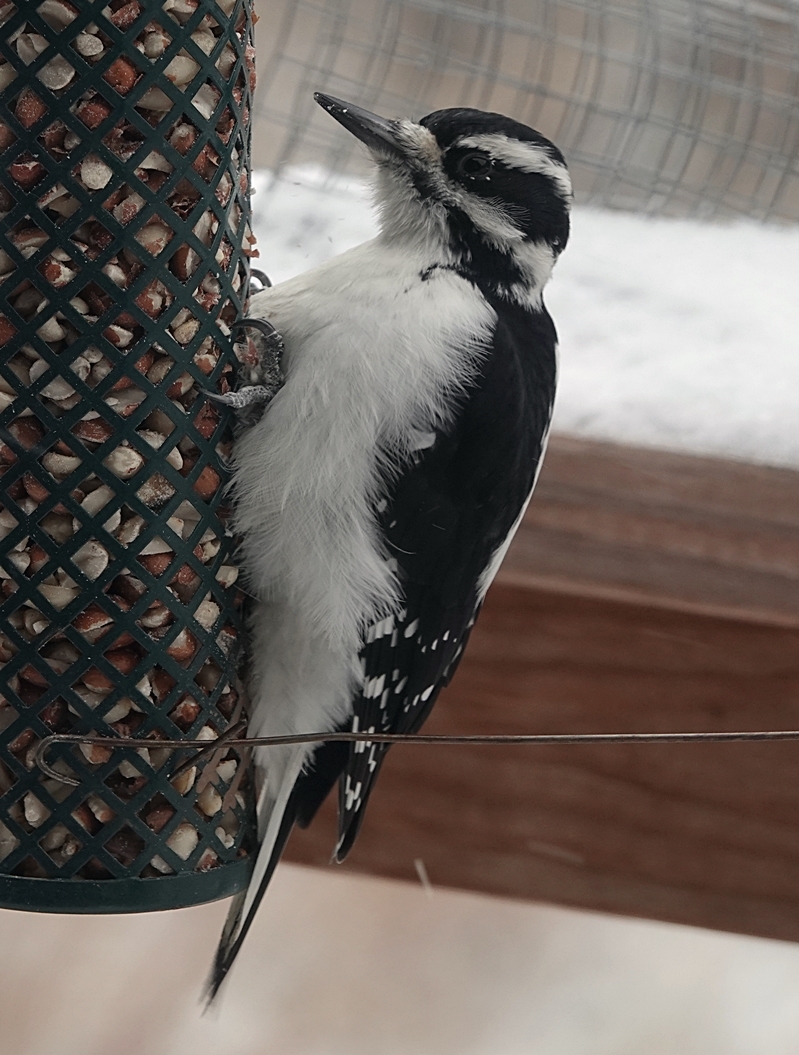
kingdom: Animalia
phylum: Chordata
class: Aves
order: Piciformes
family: Picidae
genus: Leuconotopicus
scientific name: Leuconotopicus villosus
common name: Hairy woodpecker
